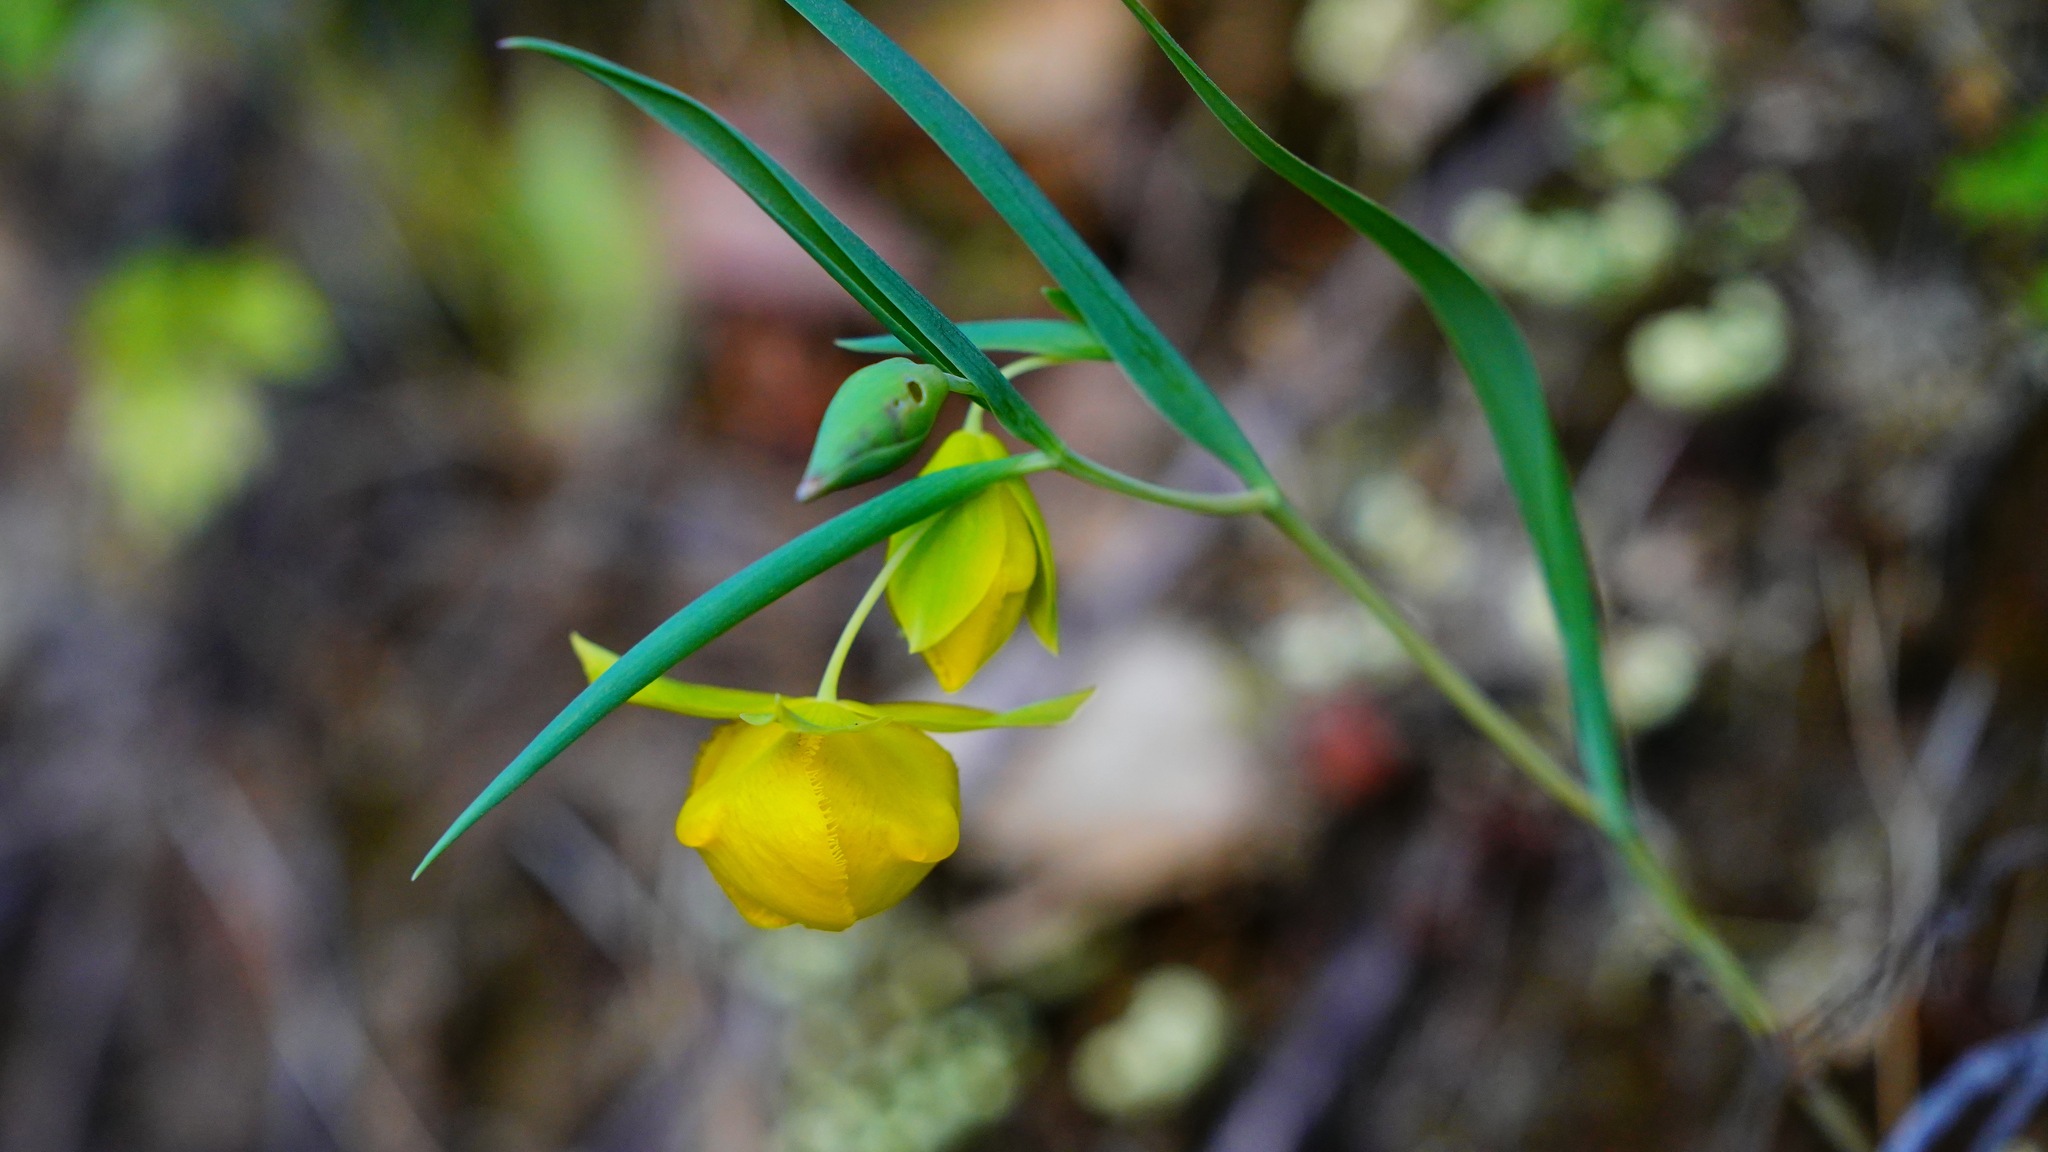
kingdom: Plantae
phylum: Tracheophyta
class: Liliopsida
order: Liliales
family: Liliaceae
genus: Calochortus
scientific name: Calochortus pulchellus
